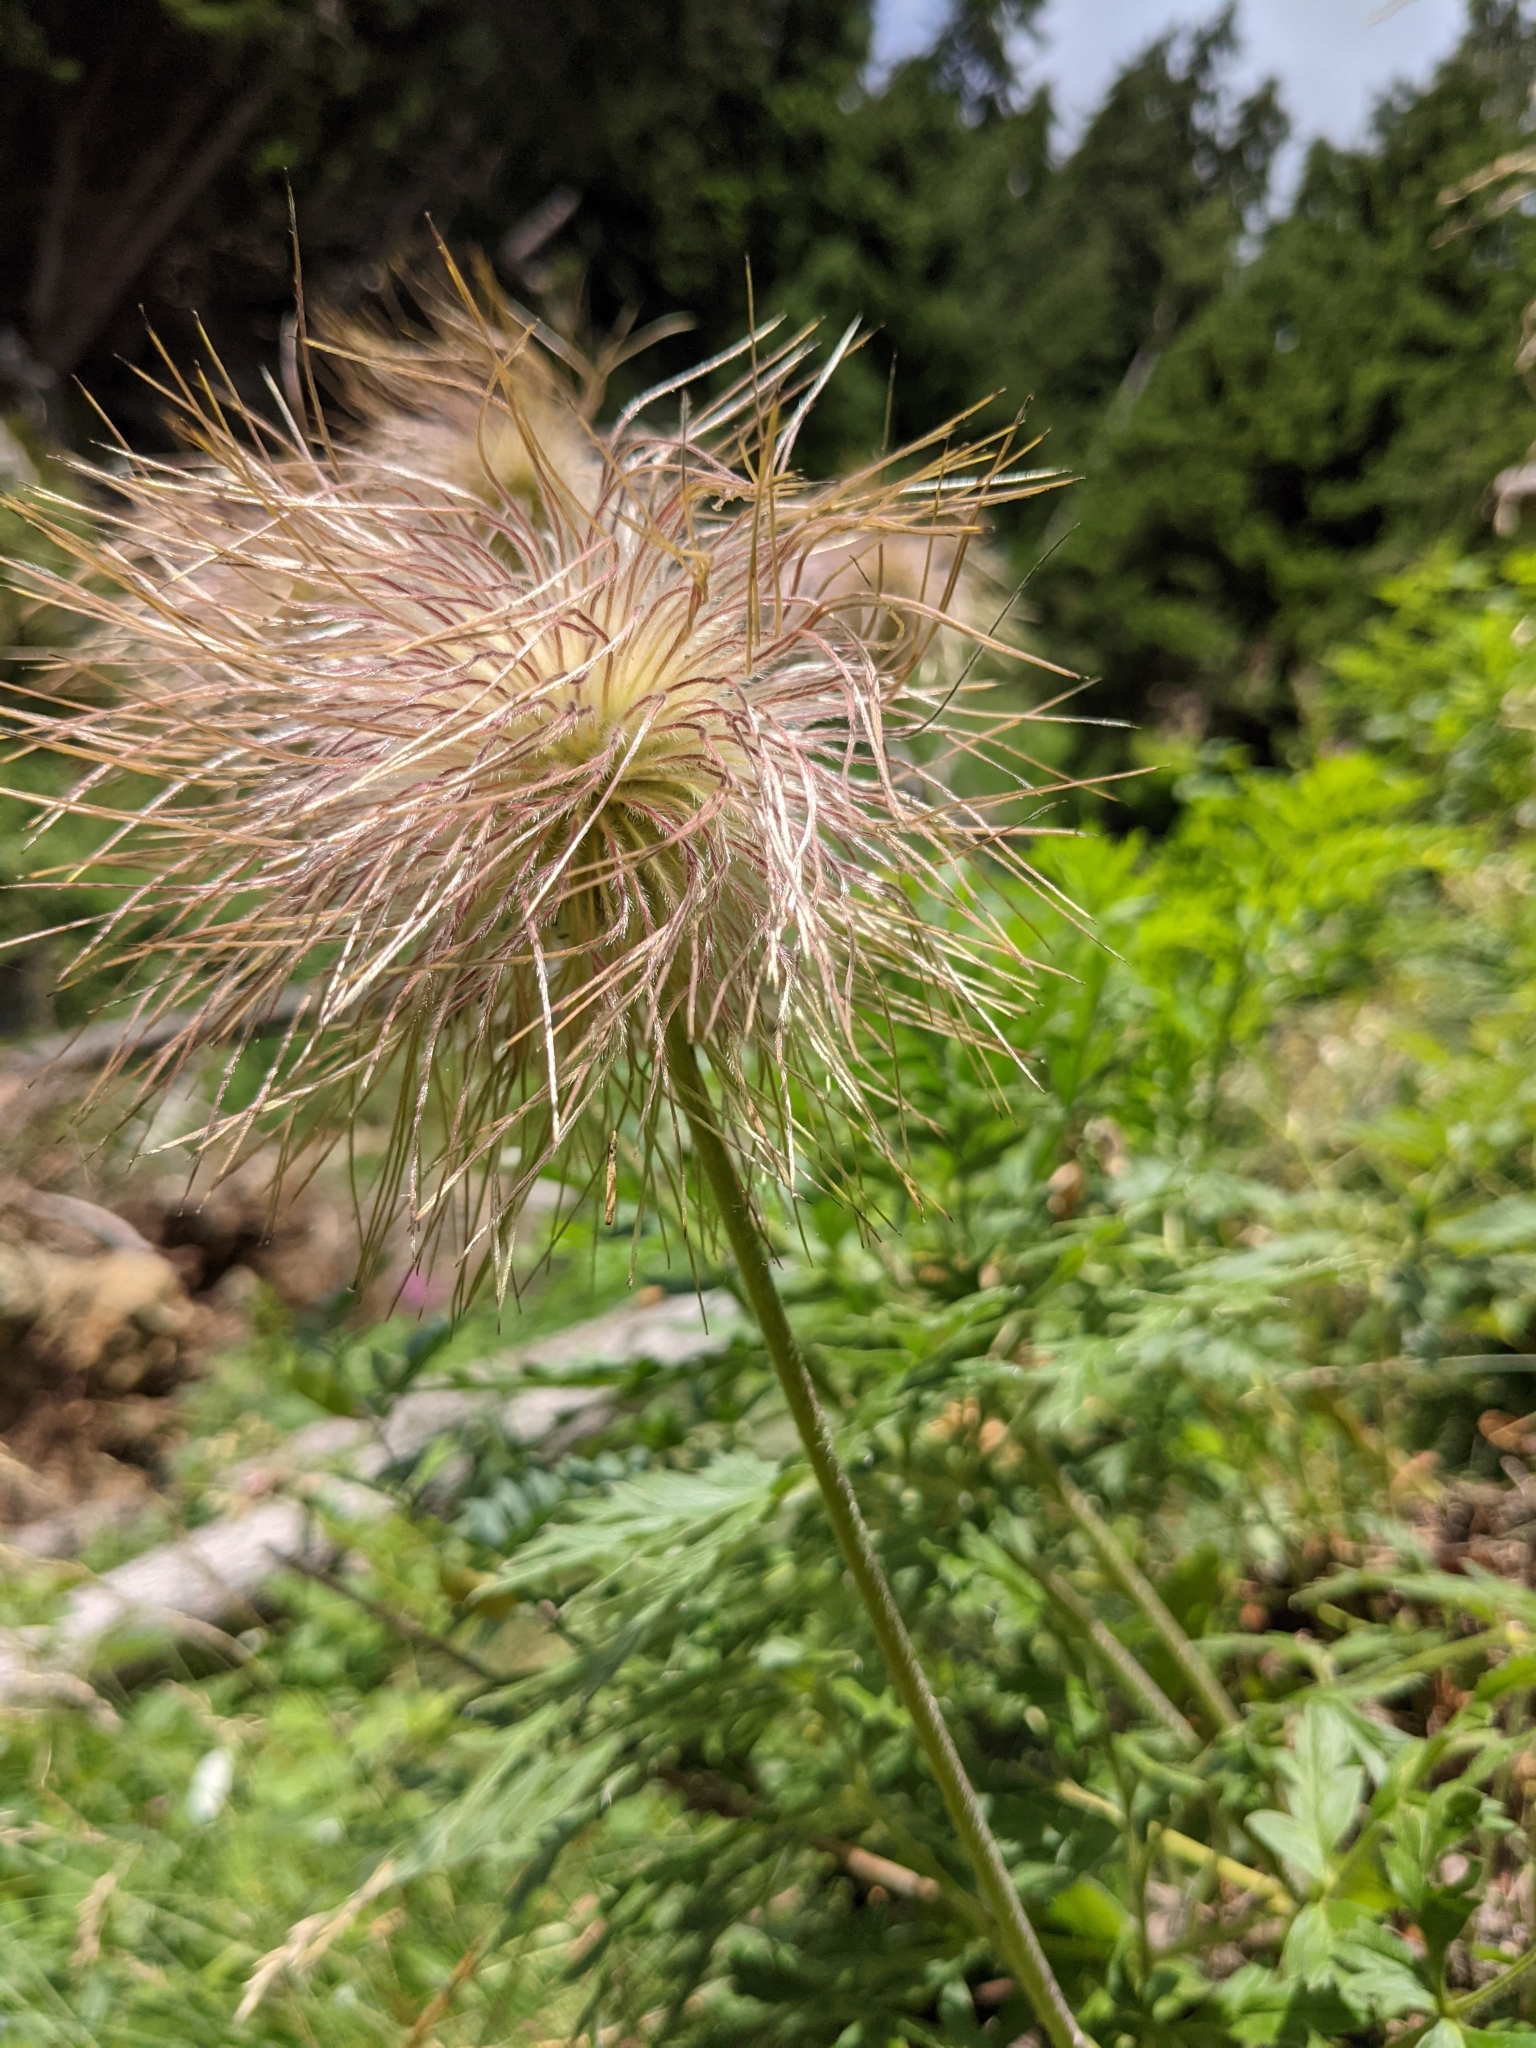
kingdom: Plantae
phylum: Tracheophyta
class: Magnoliopsida
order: Ranunculales
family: Ranunculaceae
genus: Pulsatilla
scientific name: Pulsatilla alpina
